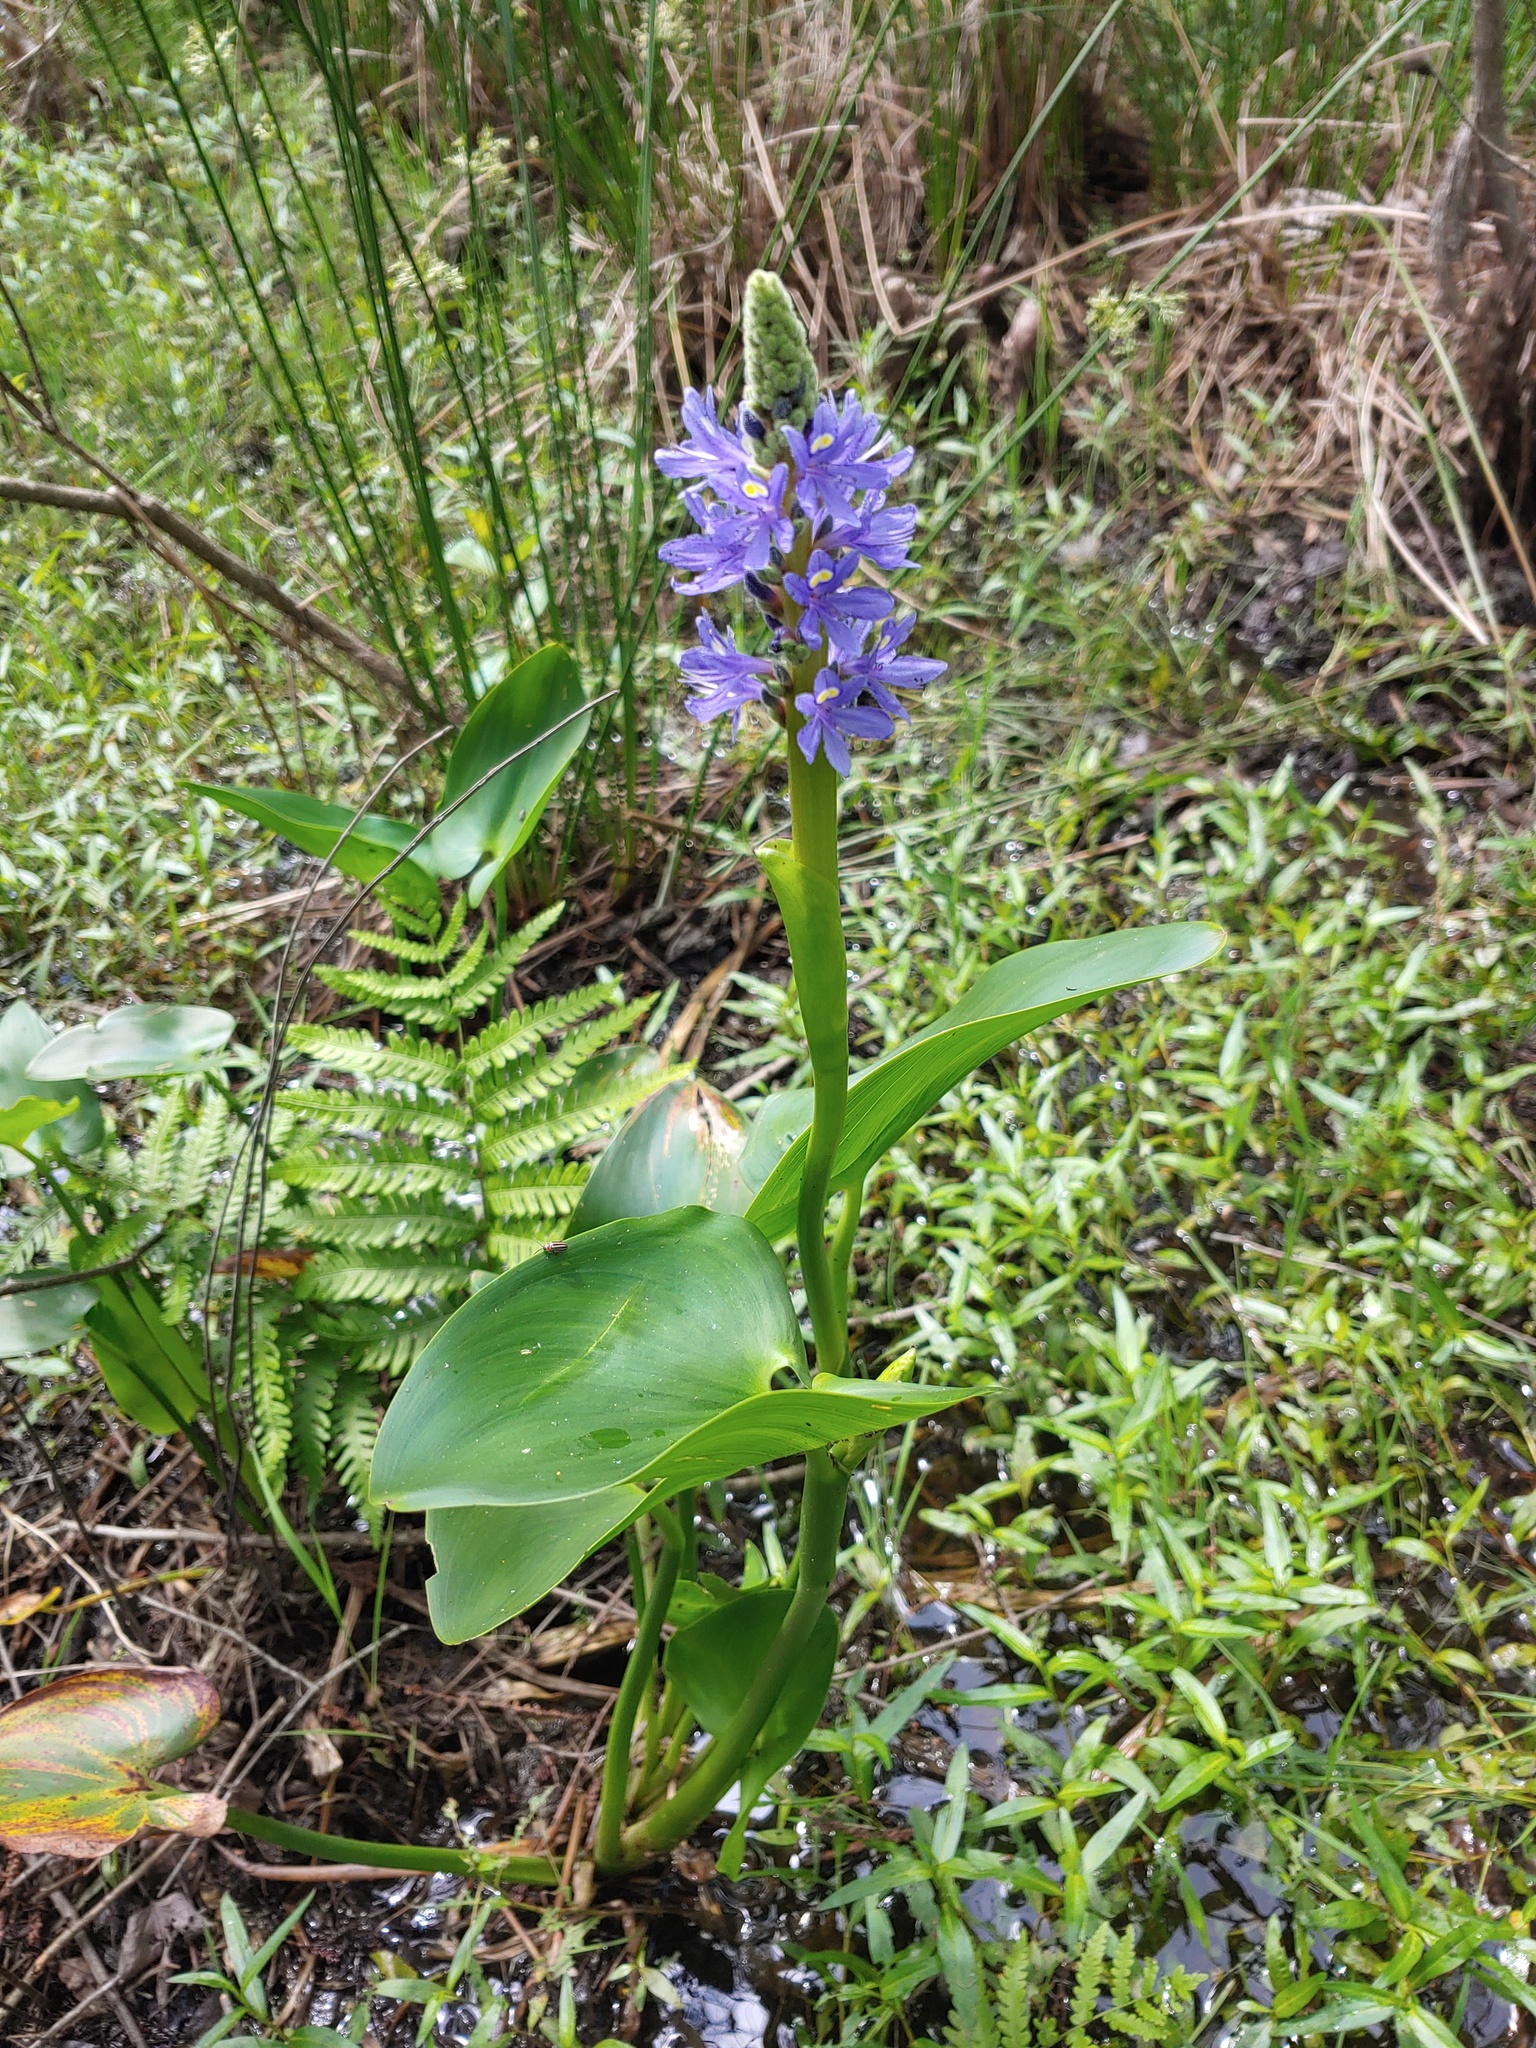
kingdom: Plantae
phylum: Tracheophyta
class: Liliopsida
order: Commelinales
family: Pontederiaceae
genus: Pontederia
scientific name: Pontederia cordata
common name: Pickerelweed
